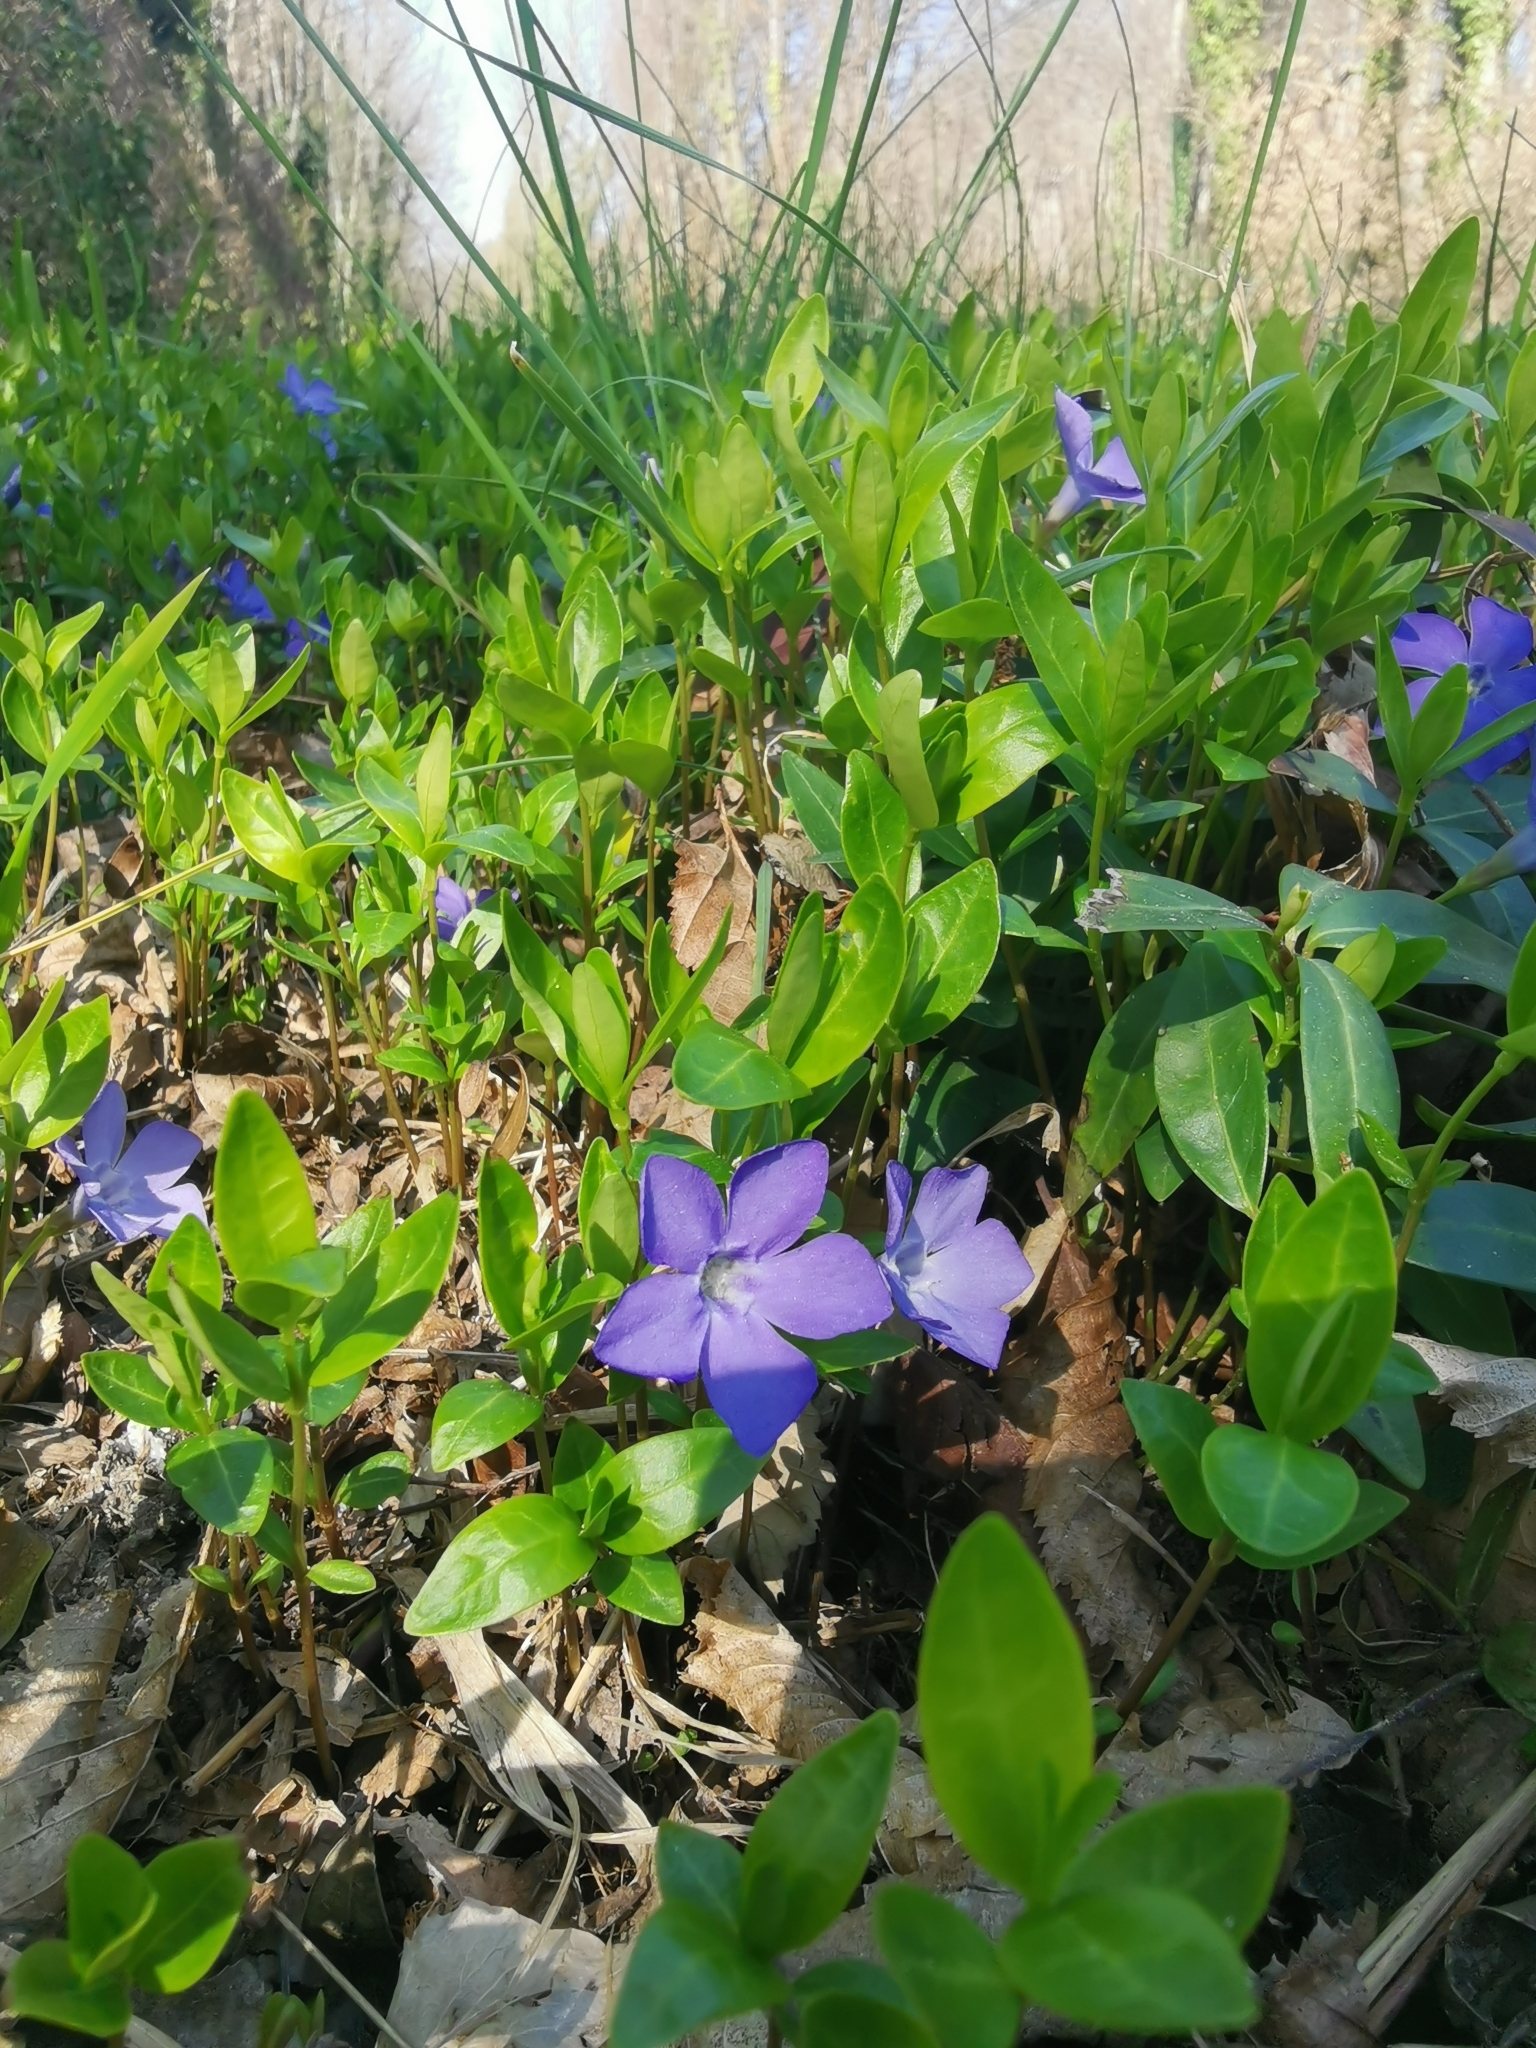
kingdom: Plantae
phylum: Tracheophyta
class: Magnoliopsida
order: Gentianales
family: Apocynaceae
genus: Vinca
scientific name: Vinca minor
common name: Lesser periwinkle
